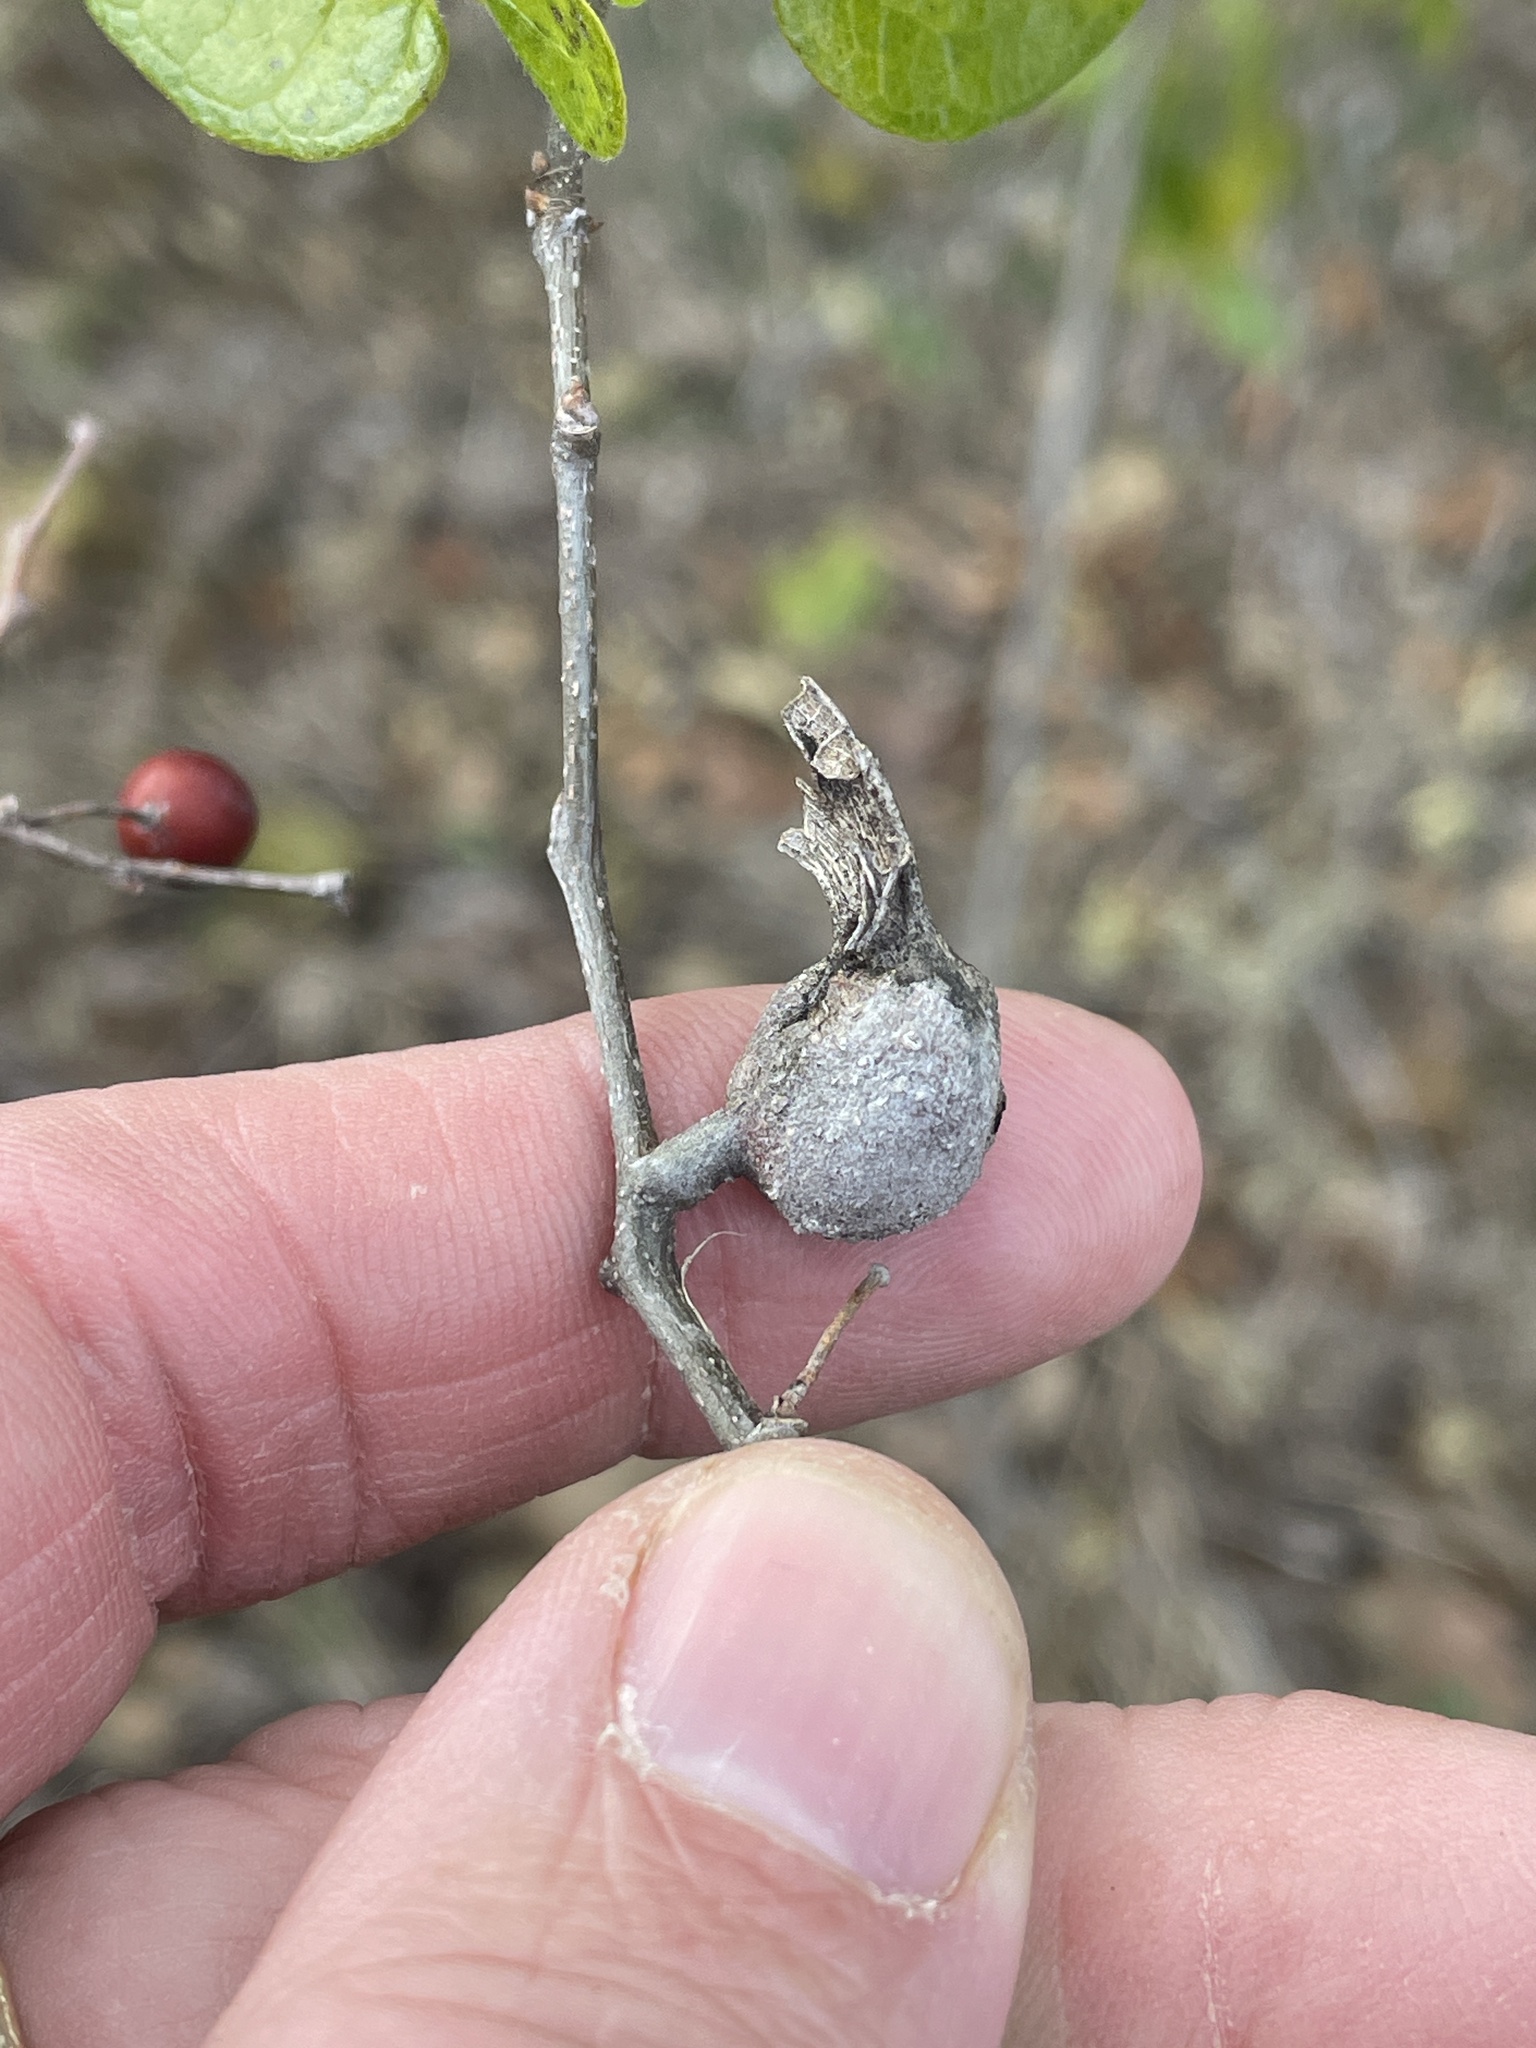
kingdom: Animalia
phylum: Arthropoda
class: Insecta
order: Hemiptera
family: Aphalaridae
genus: Pachypsylla
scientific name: Pachypsylla venusta
